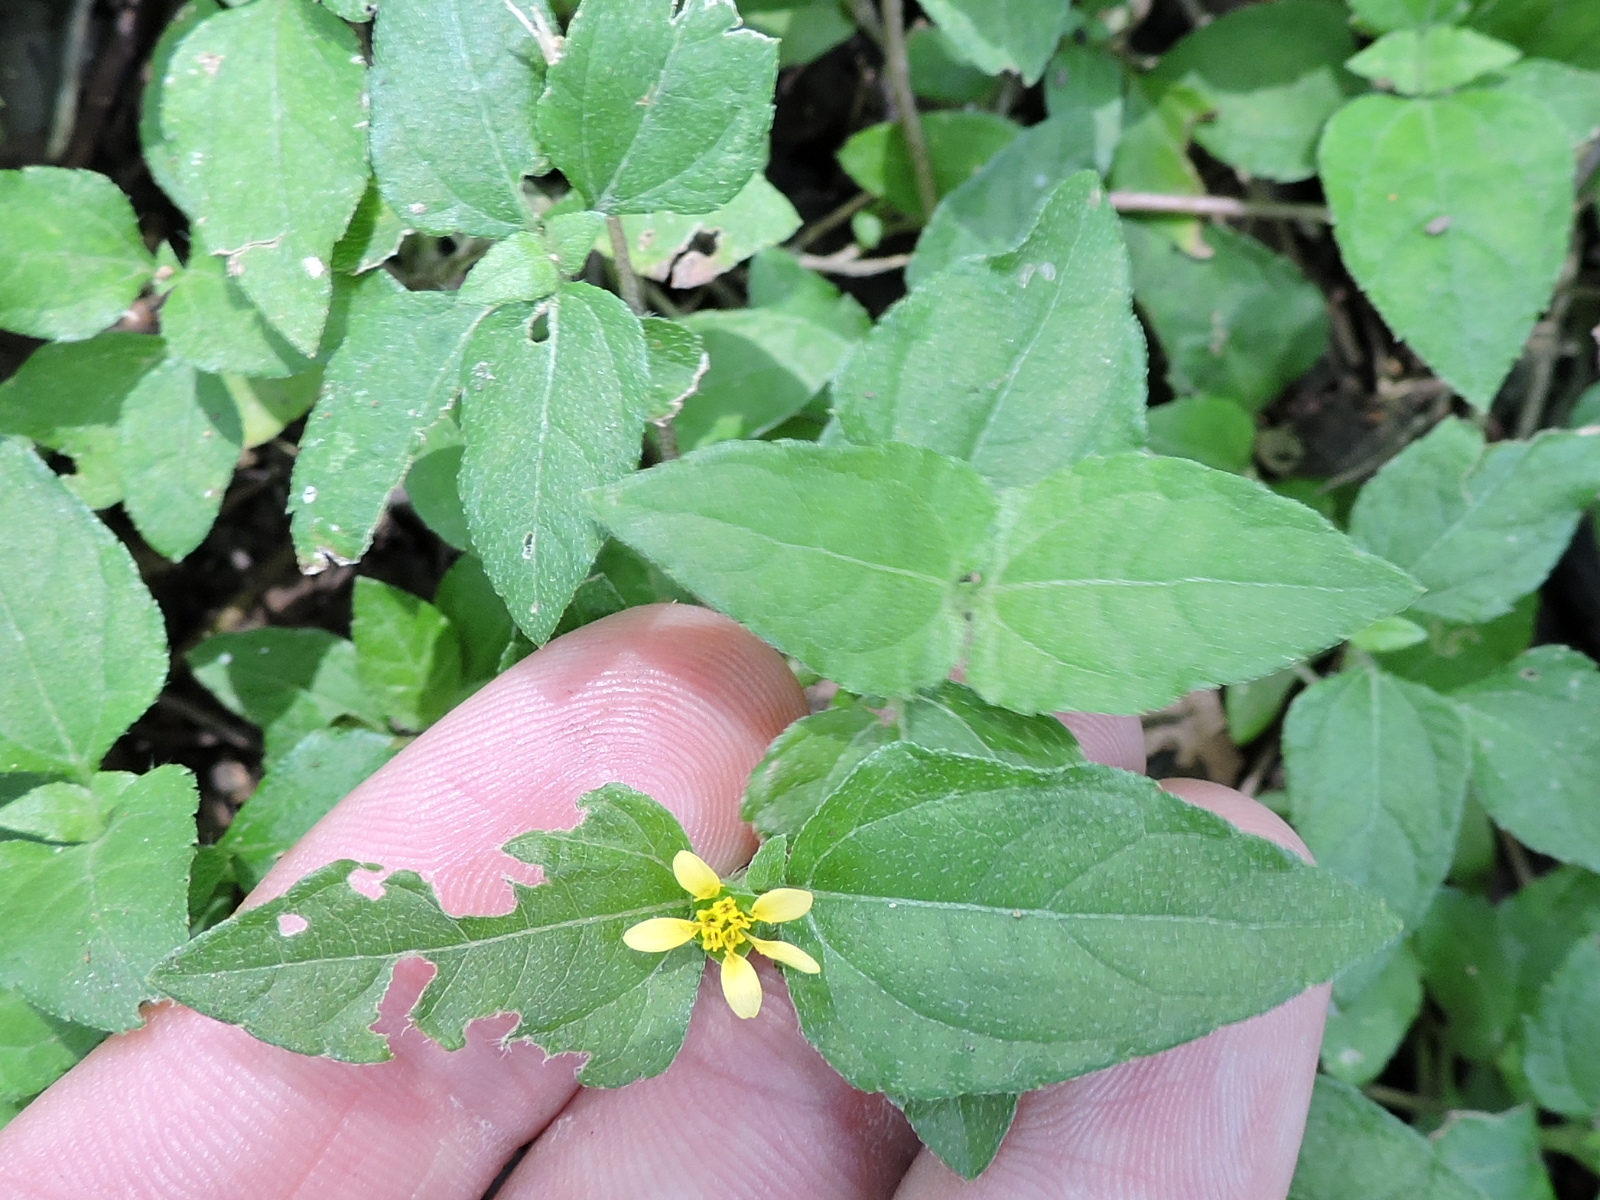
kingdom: Plantae
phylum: Tracheophyta
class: Magnoliopsida
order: Asterales
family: Asteraceae
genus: Calyptocarpus
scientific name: Calyptocarpus vialis
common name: Straggler daisy
